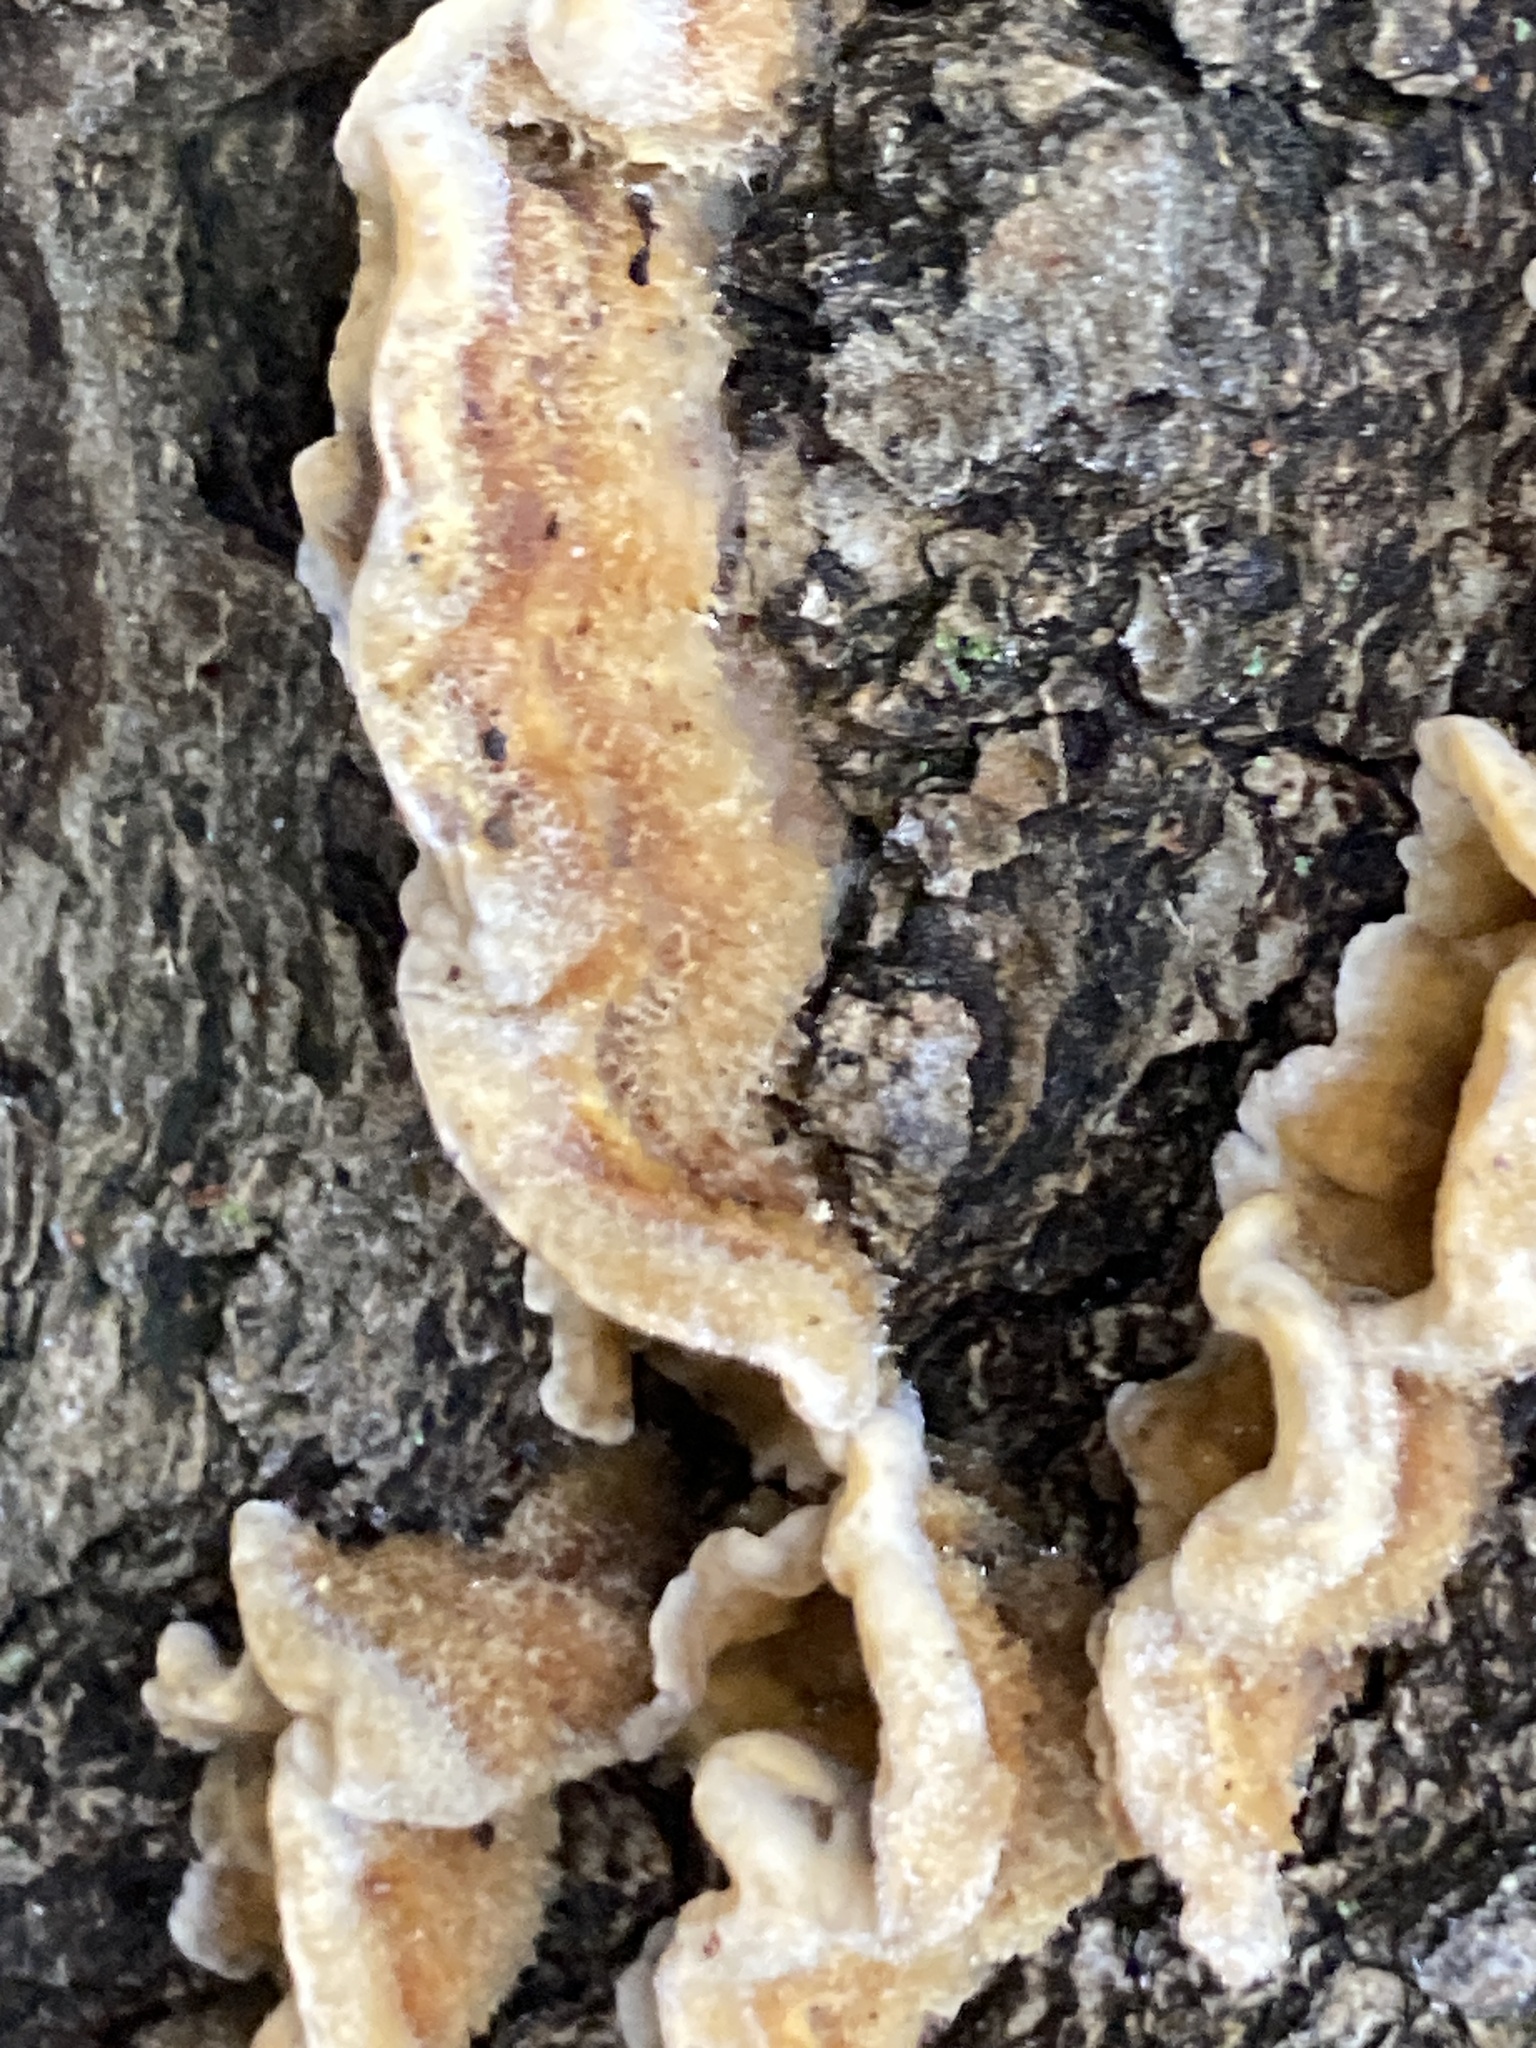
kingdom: Fungi
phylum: Basidiomycota
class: Agaricomycetes
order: Russulales
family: Stereaceae
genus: Stereum
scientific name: Stereum hirsutum
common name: Hairy curtain crust
